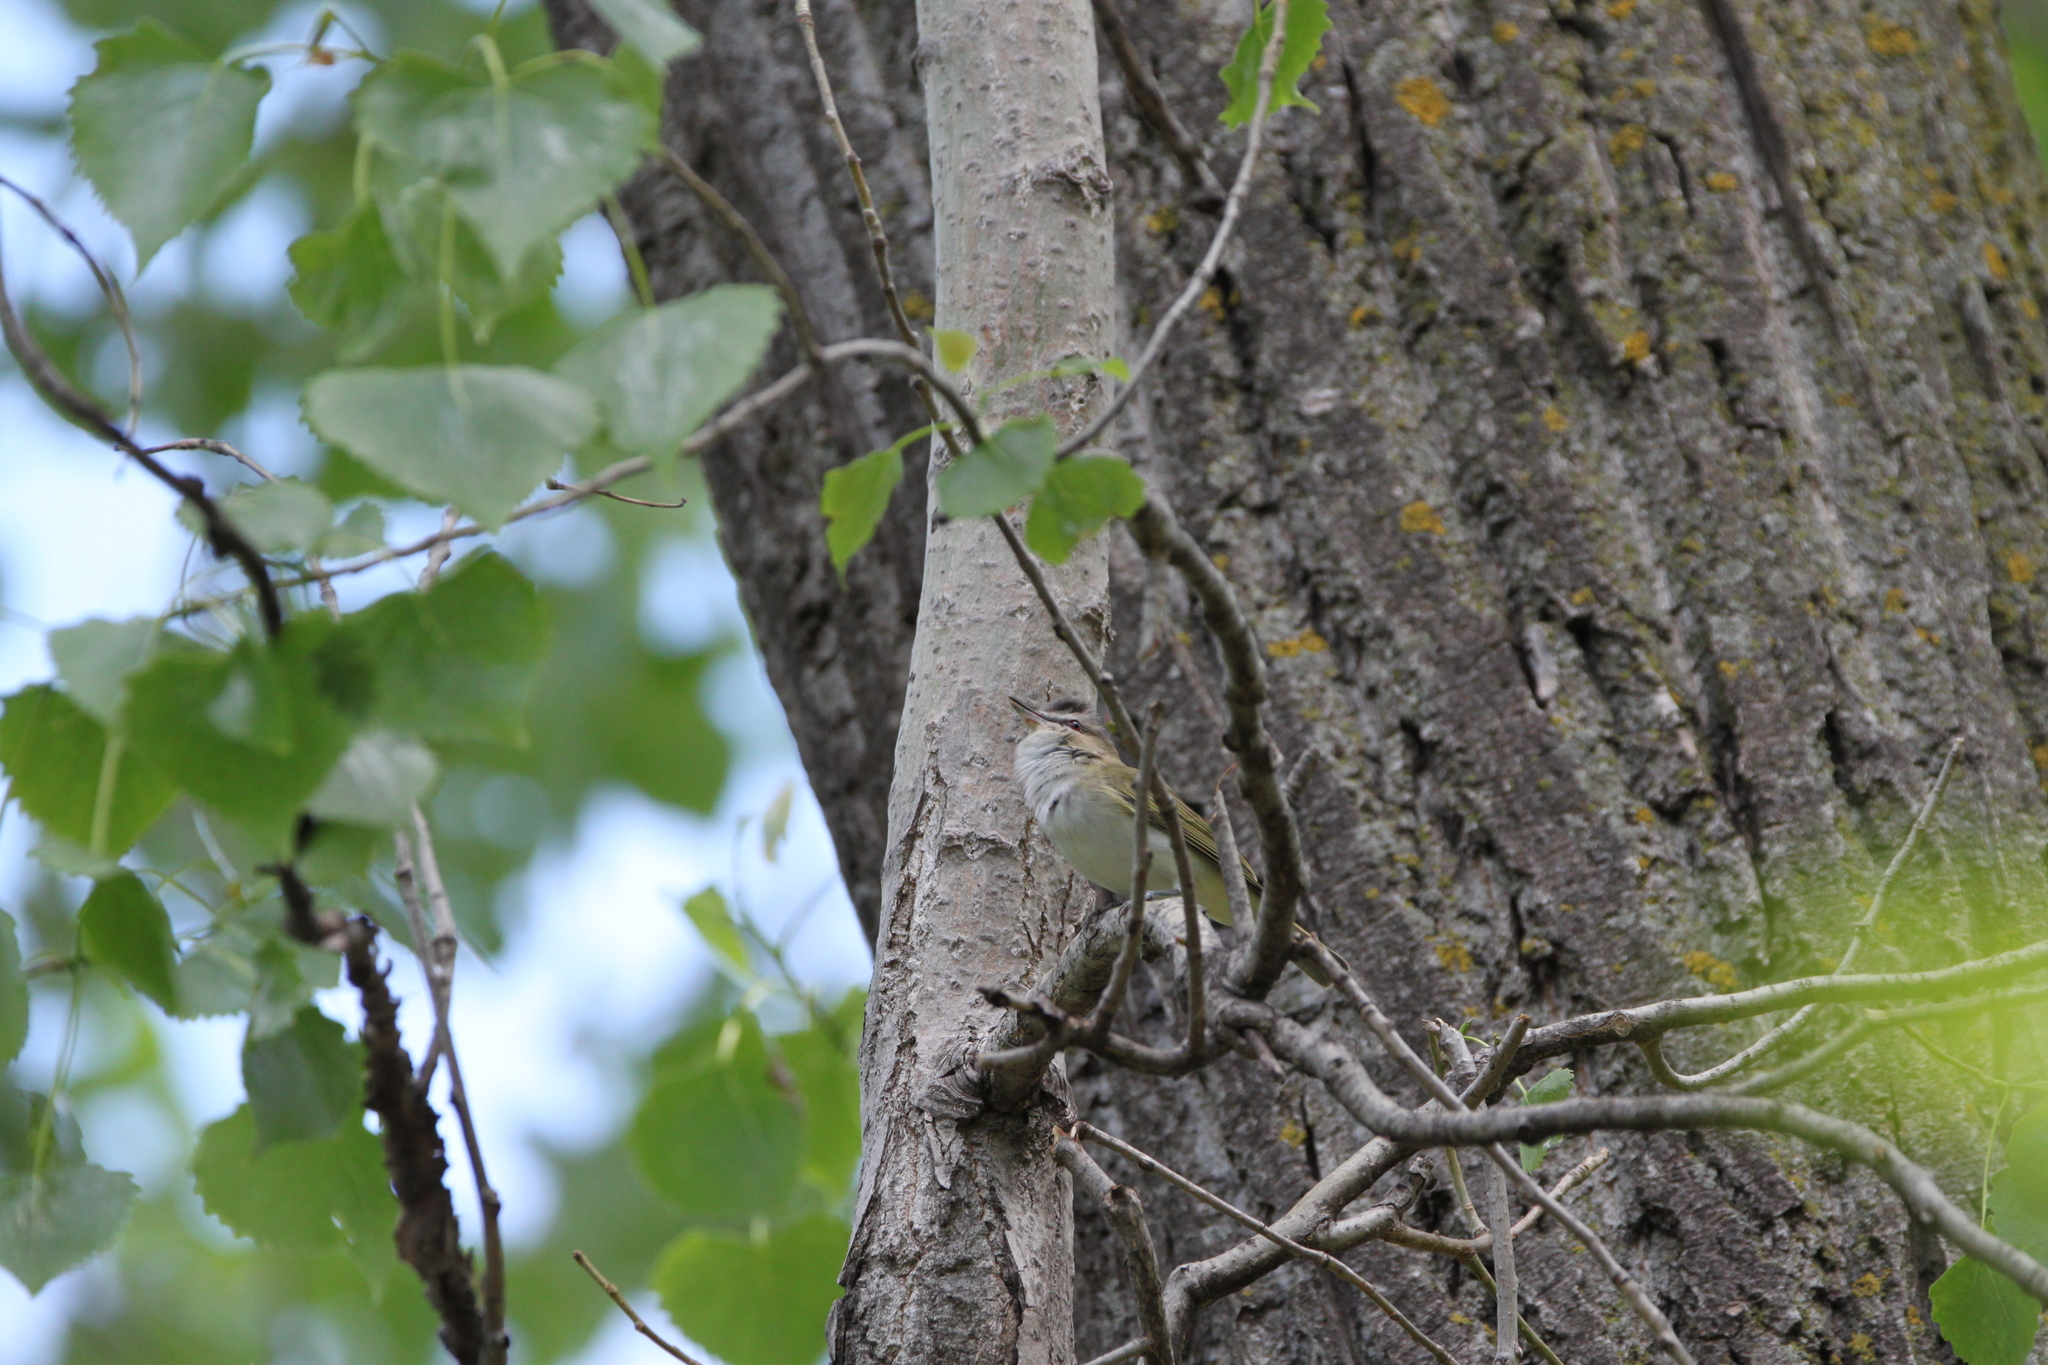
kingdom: Animalia
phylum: Chordata
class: Aves
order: Passeriformes
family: Vireonidae
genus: Vireo
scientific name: Vireo olivaceus
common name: Red-eyed vireo
